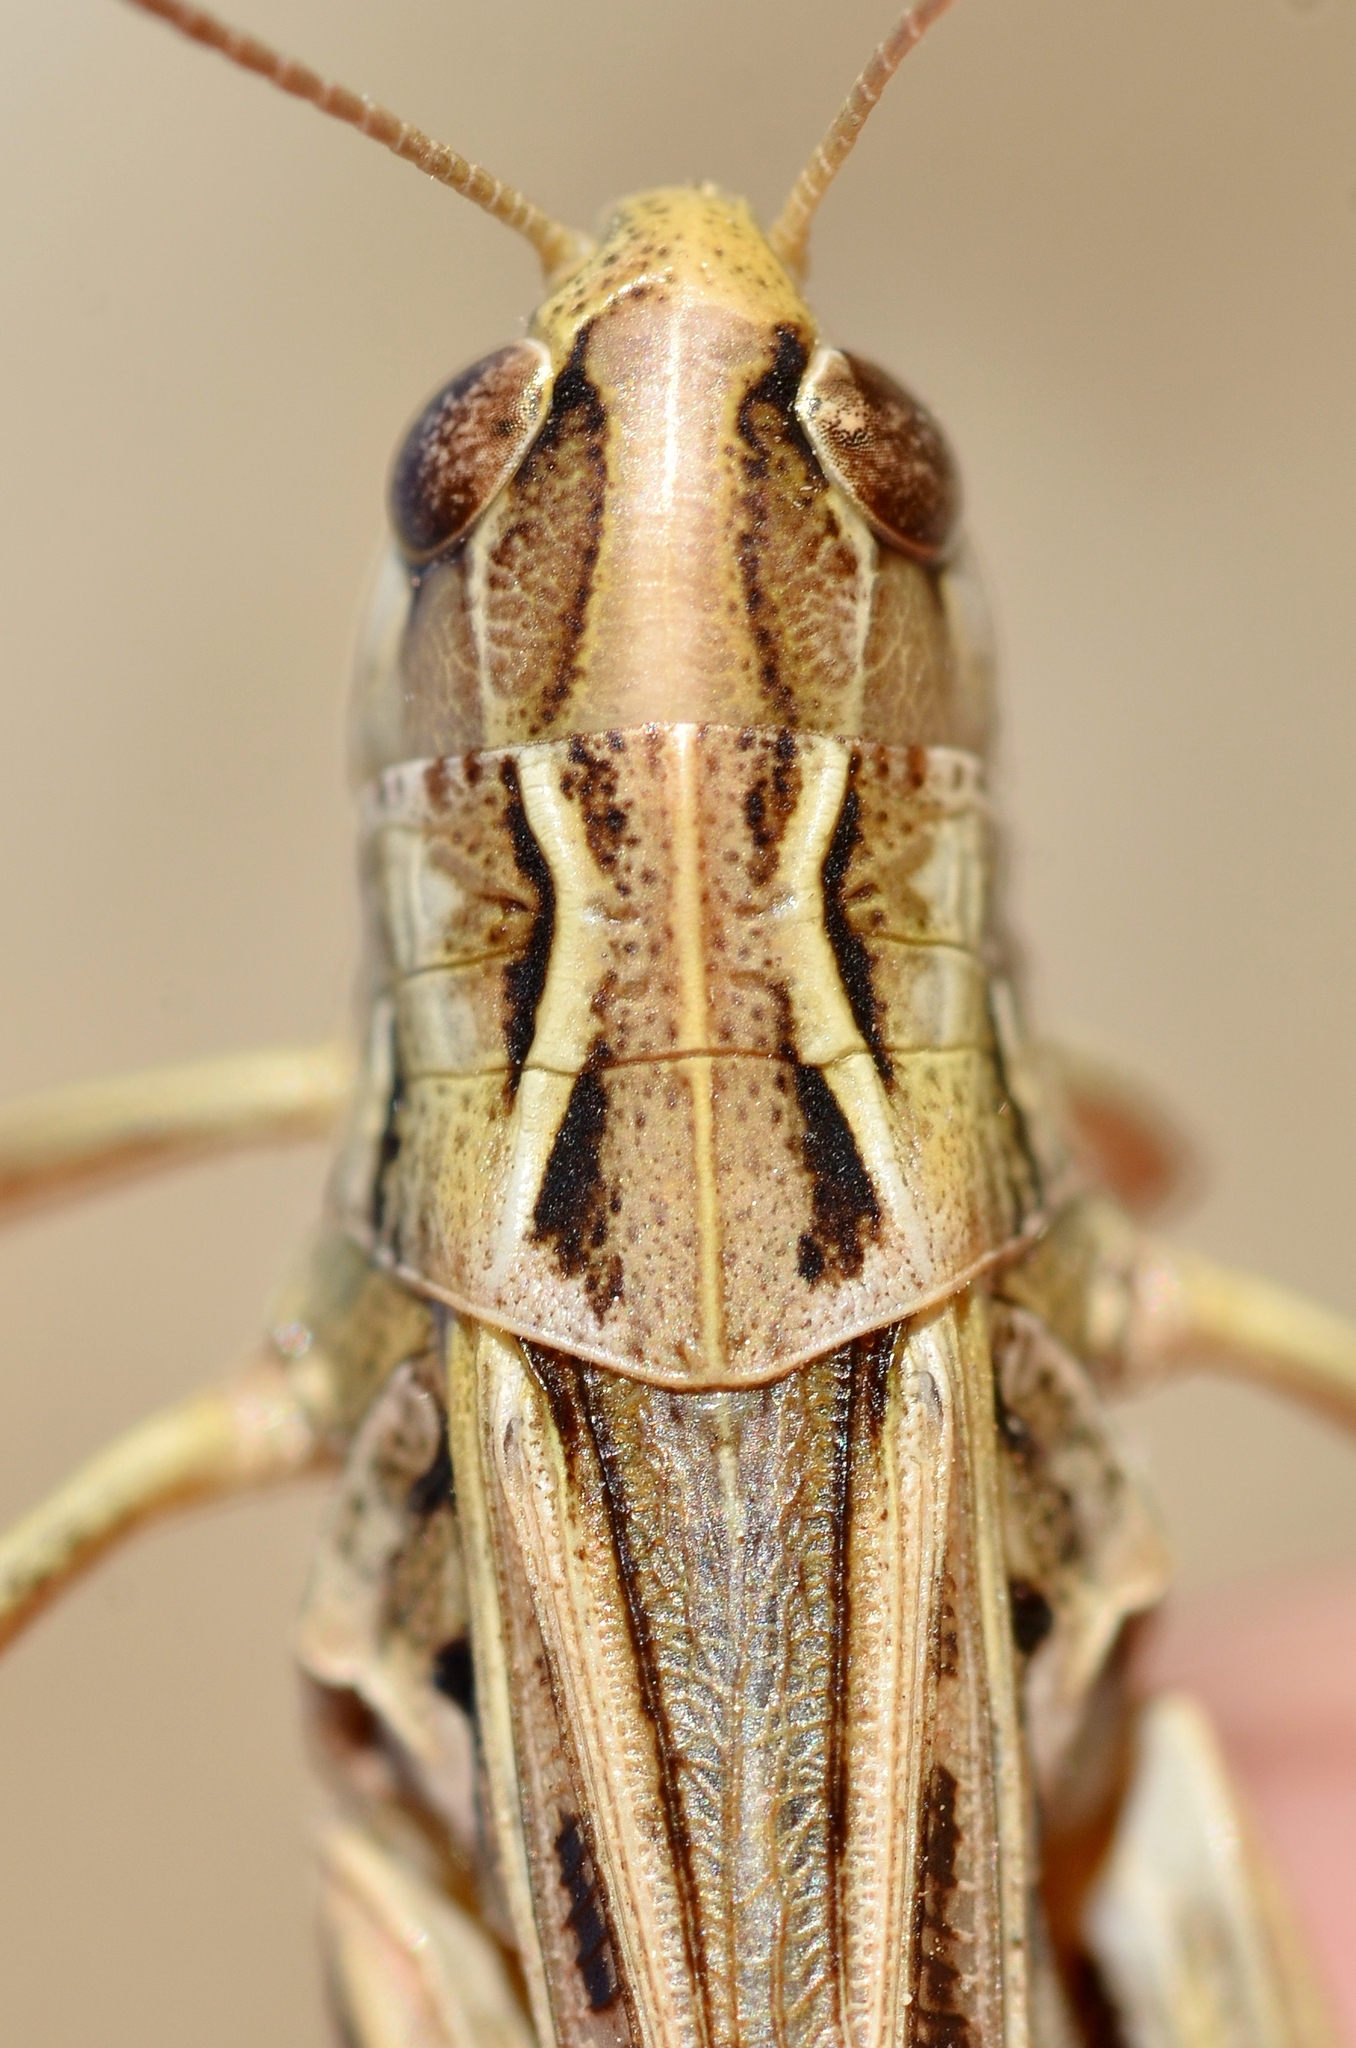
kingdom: Animalia
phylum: Arthropoda
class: Insecta
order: Orthoptera
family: Acrididae
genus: Stenobothrus
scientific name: Stenobothrus nigromaculatus
